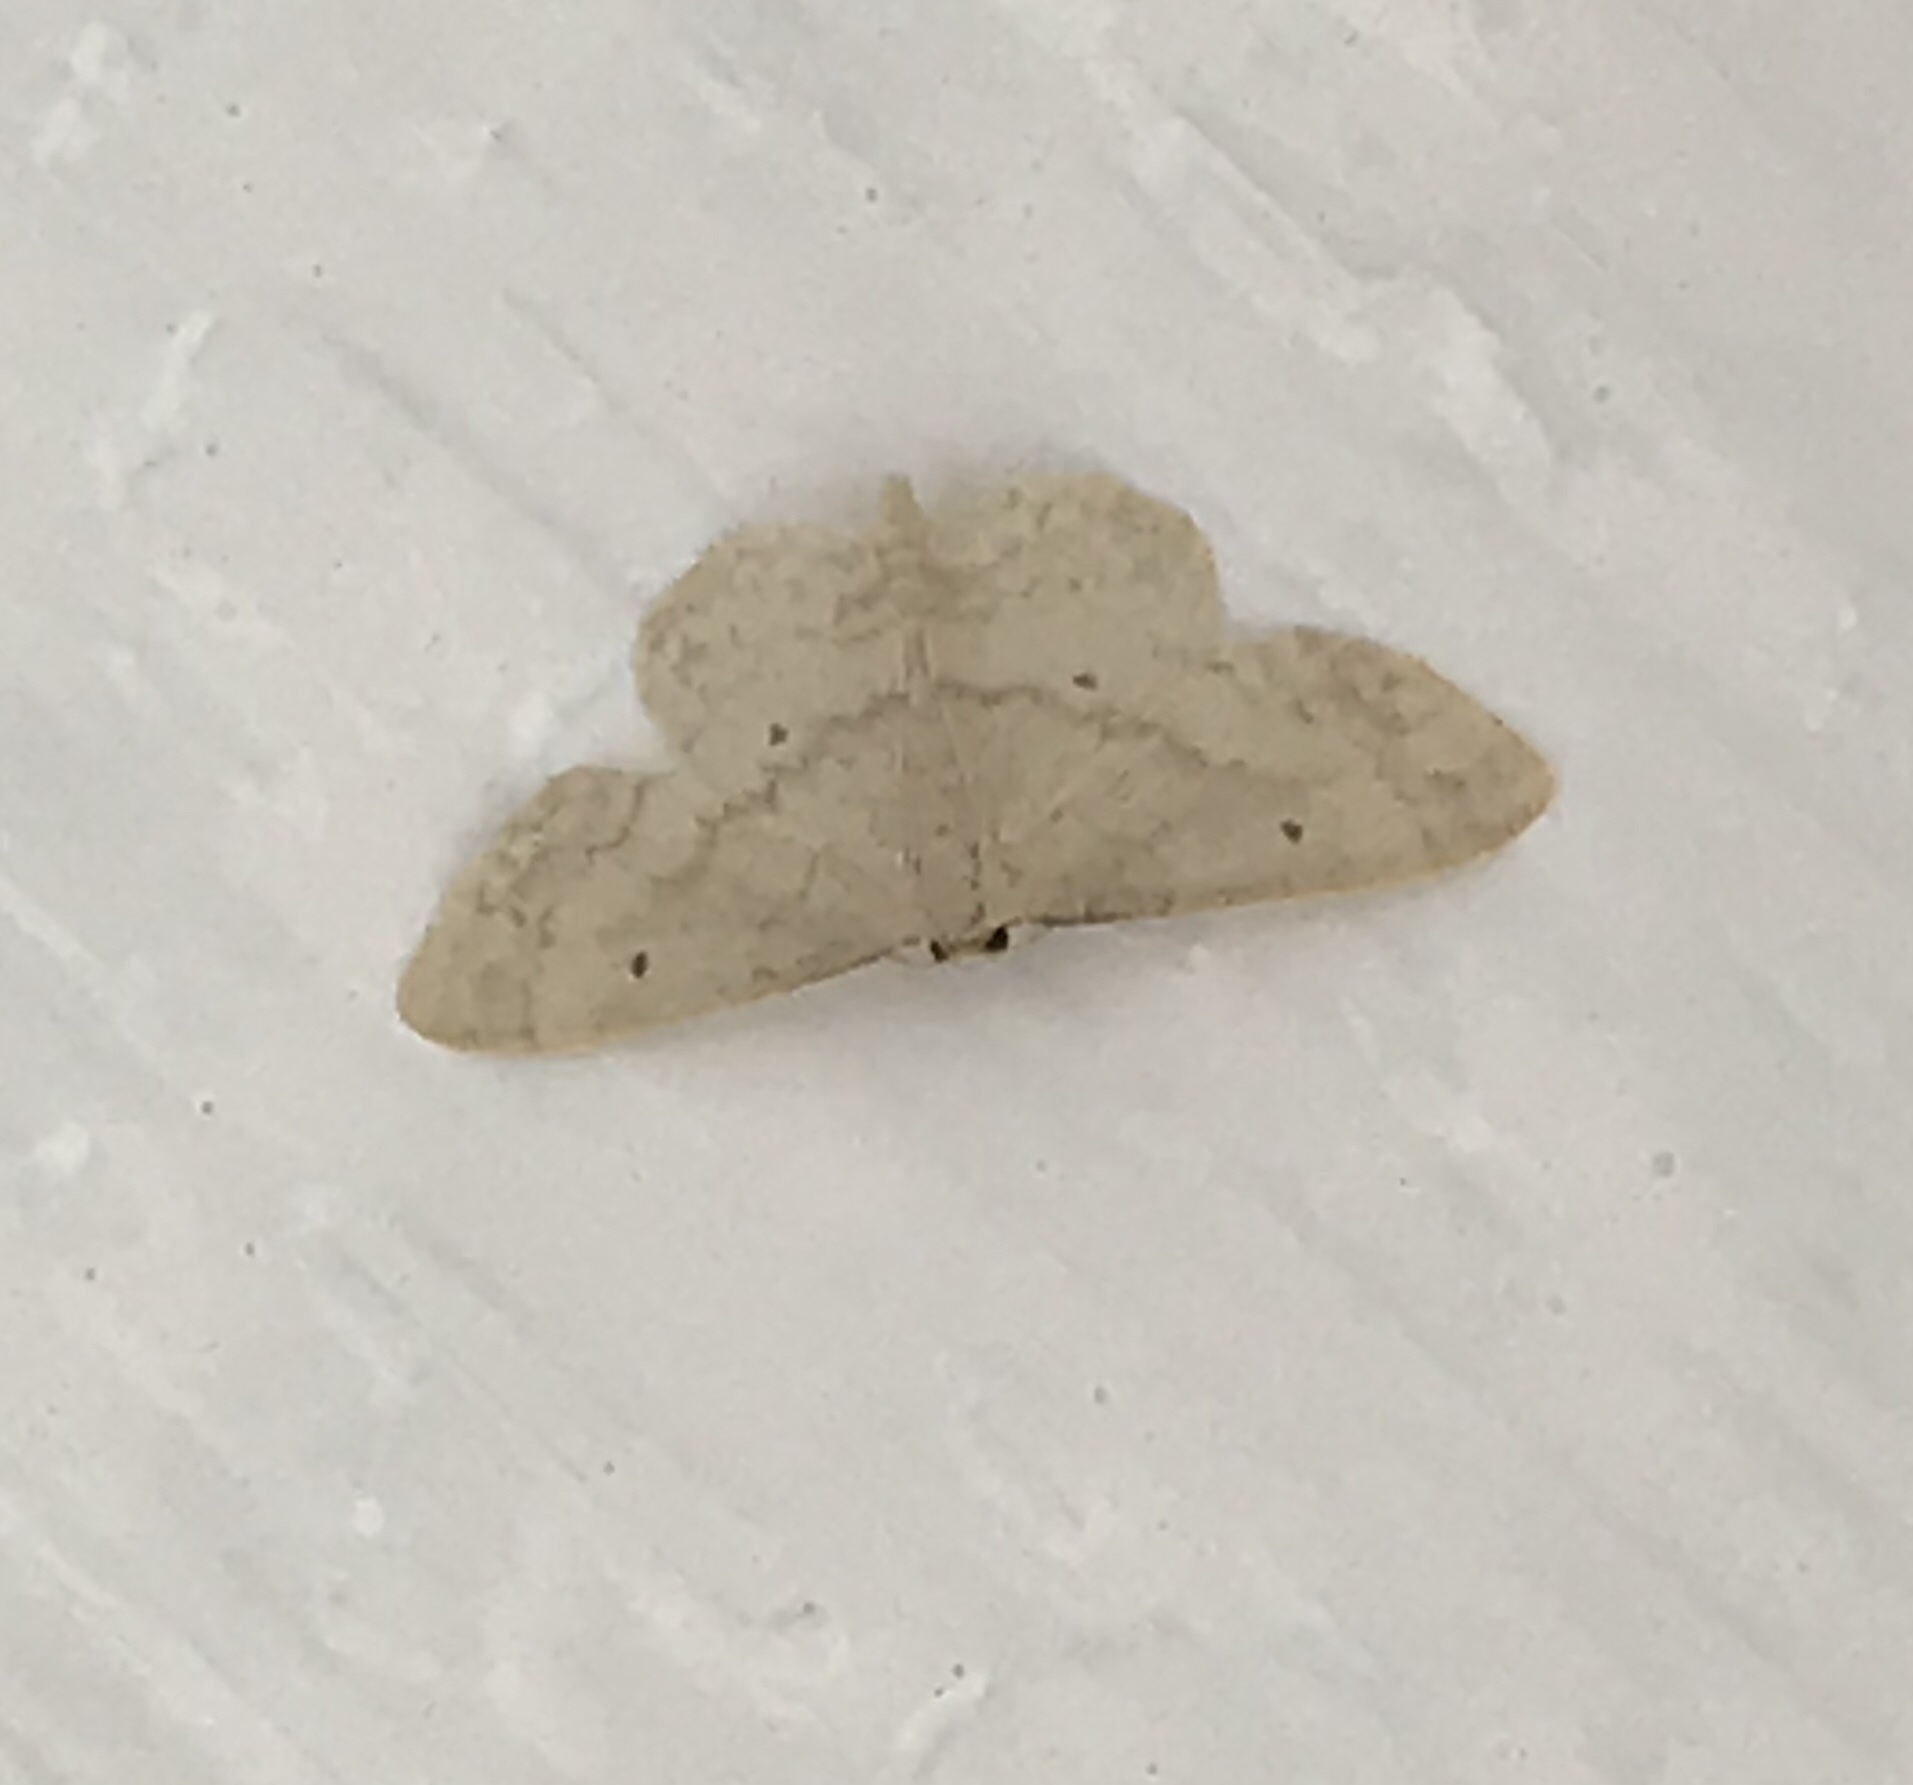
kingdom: Animalia
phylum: Arthropoda
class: Insecta
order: Lepidoptera
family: Geometridae
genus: Idaea
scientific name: Idaea biselata
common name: Small fan-footed wave
